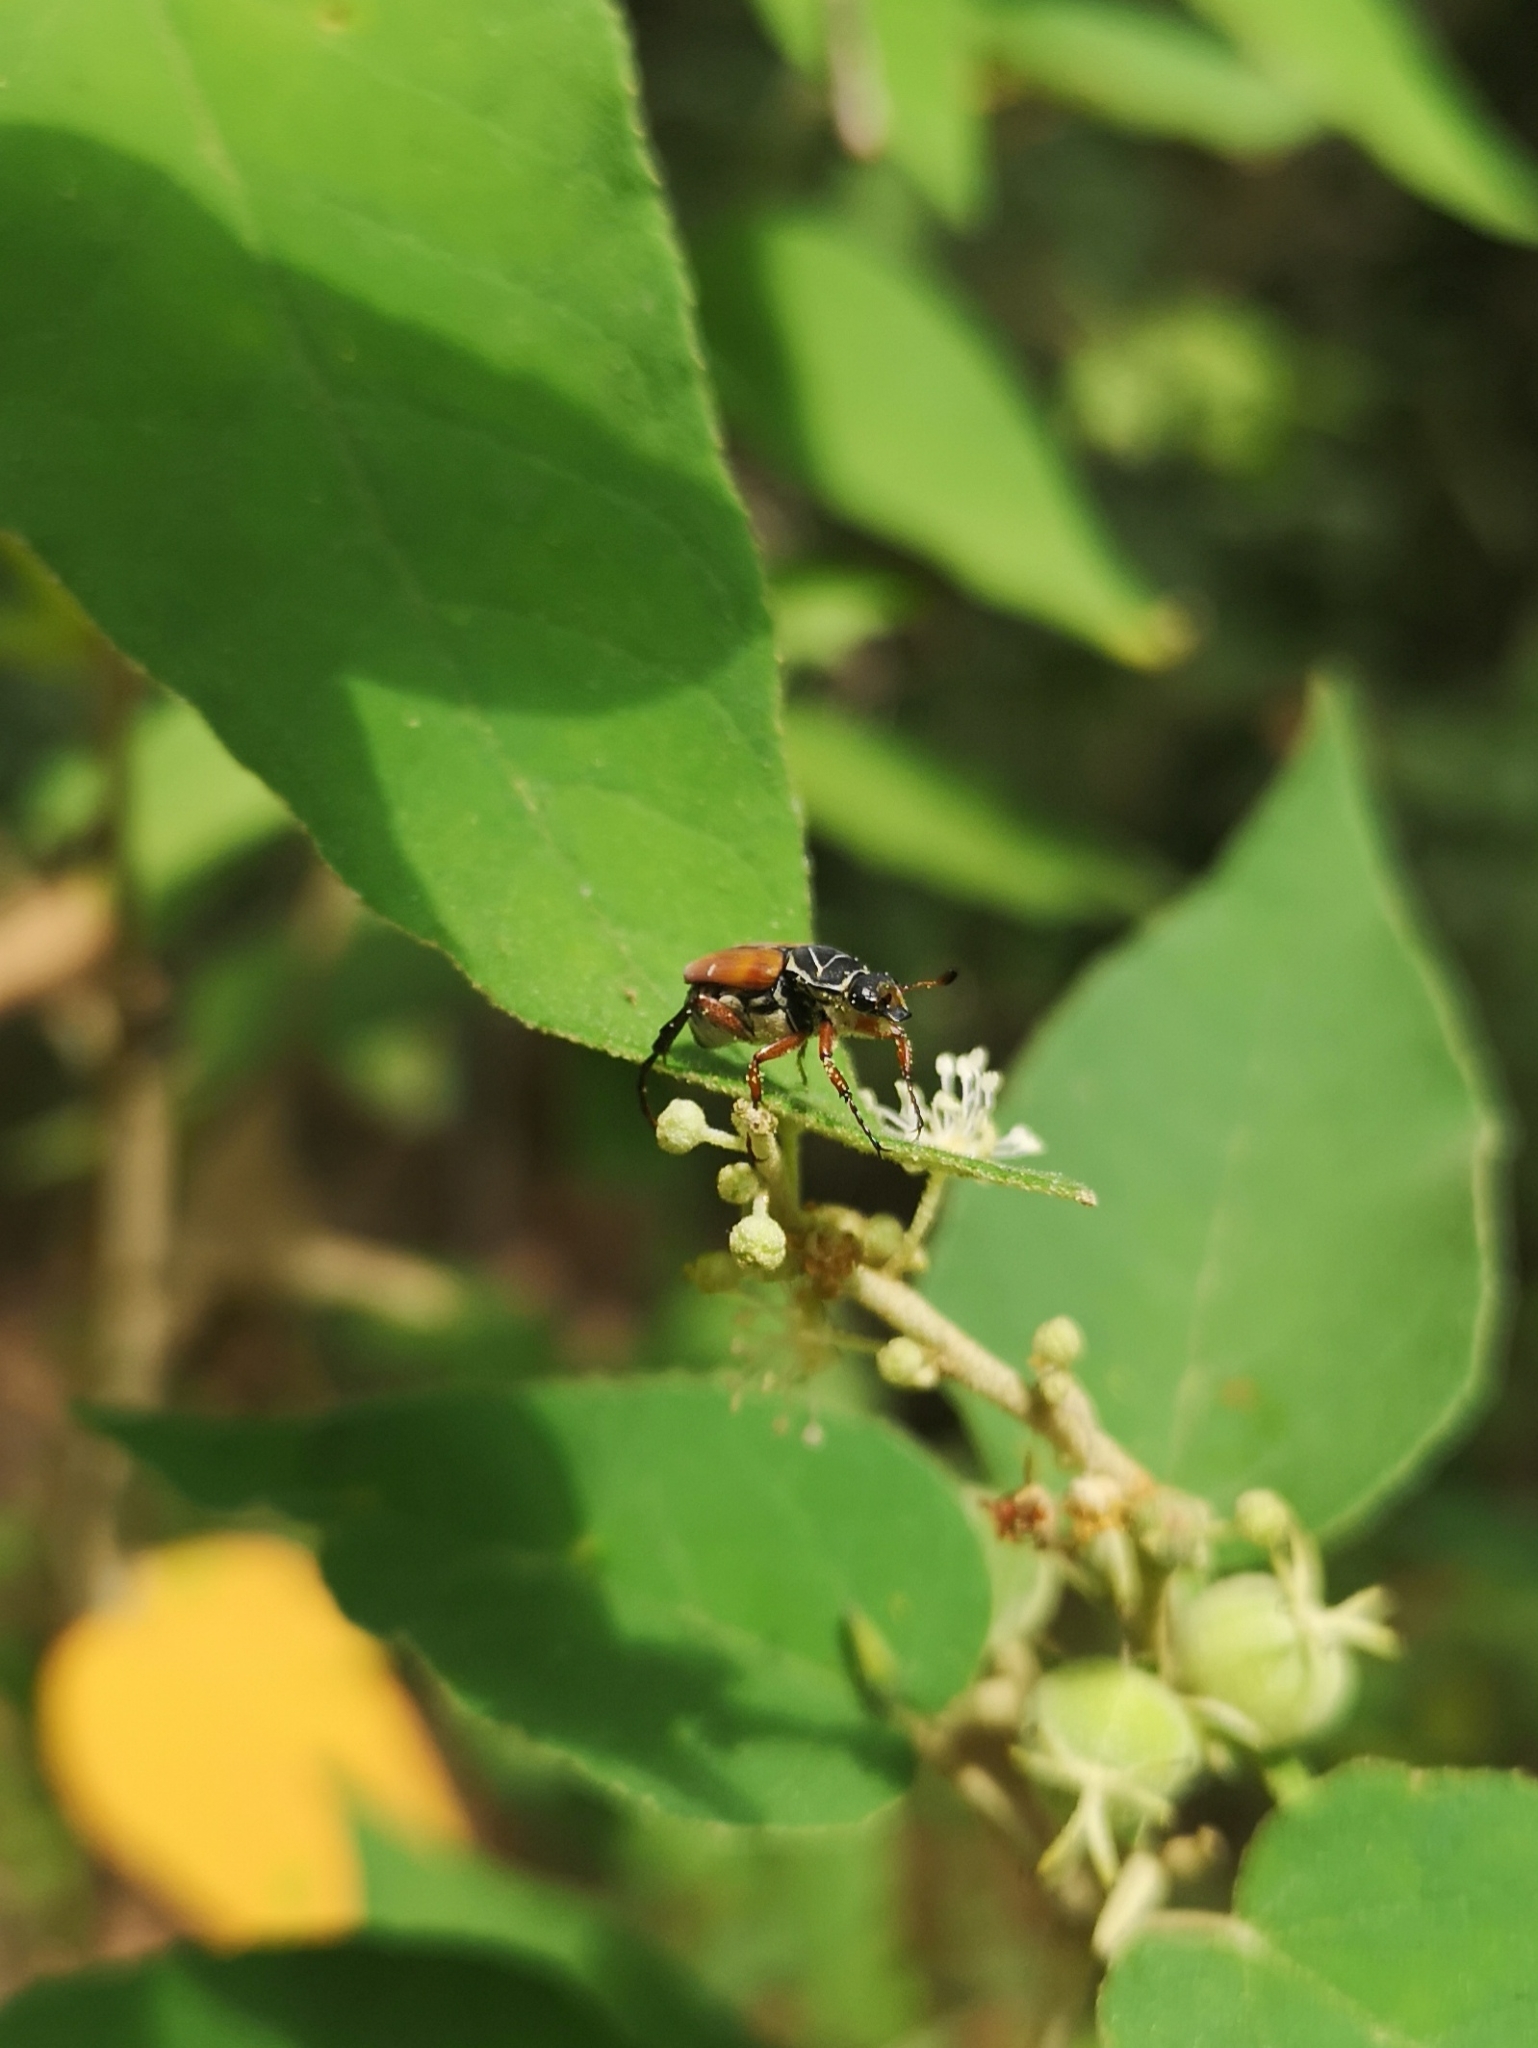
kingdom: Animalia
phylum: Arthropoda
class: Insecta
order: Coleoptera
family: Scarabaeidae
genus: Trigonopeltastes
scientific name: Trigonopeltastes frontalis
